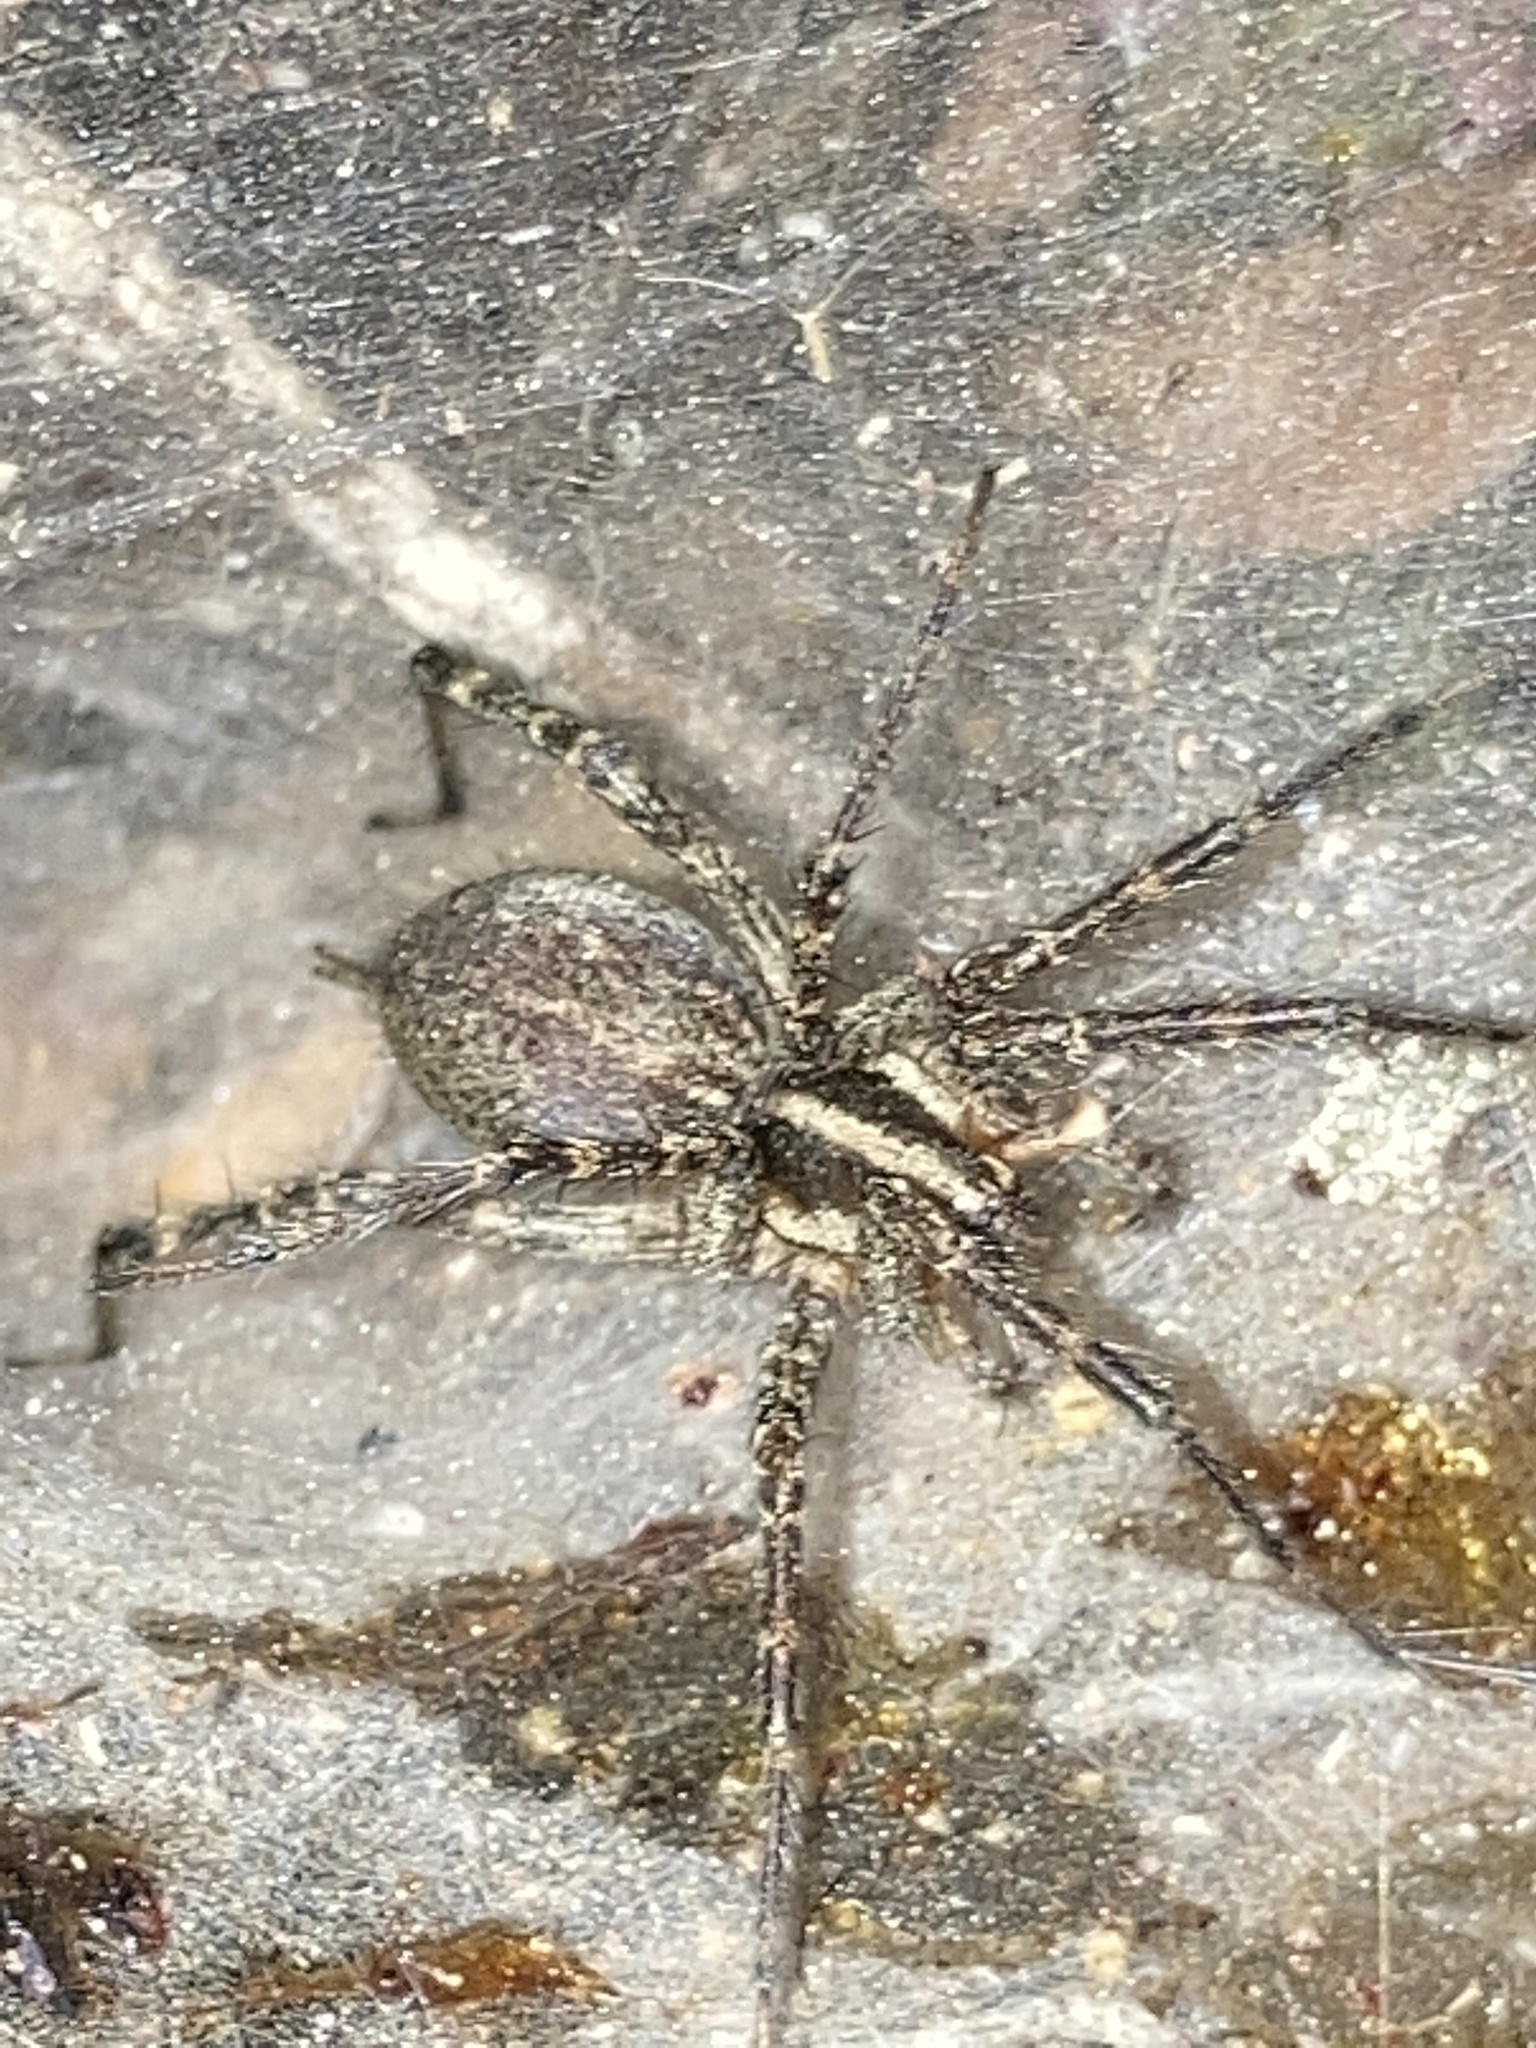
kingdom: Animalia
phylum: Arthropoda
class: Arachnida
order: Araneae
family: Agelenidae
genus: Agelenopsis
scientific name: Agelenopsis
